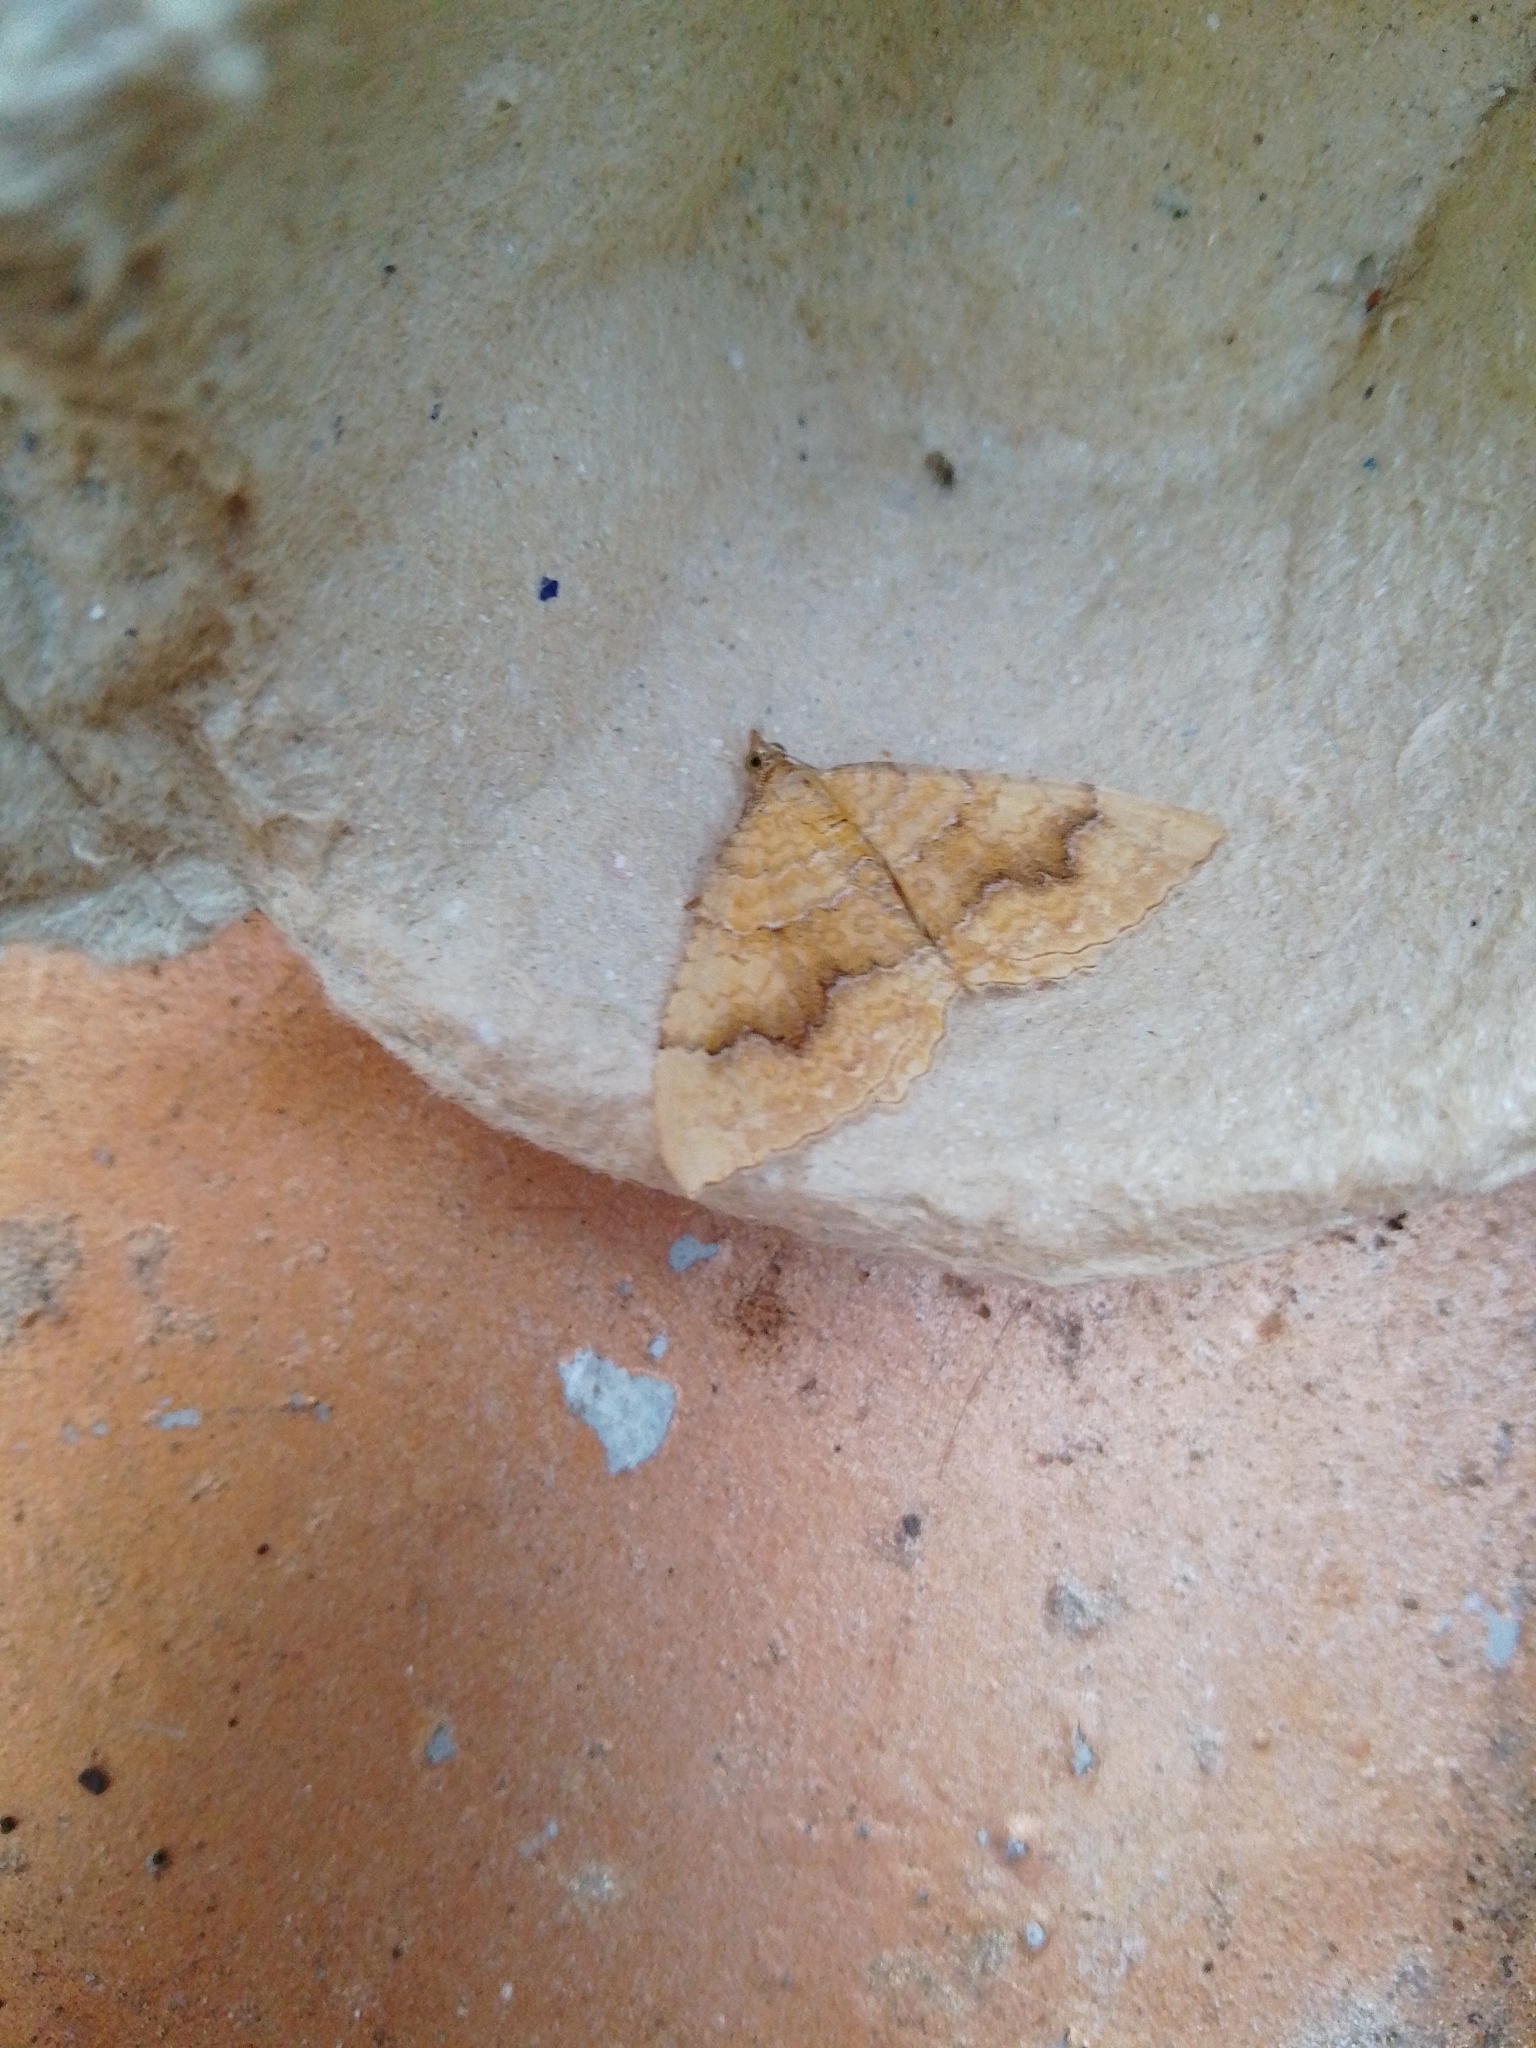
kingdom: Animalia
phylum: Arthropoda
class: Insecta
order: Lepidoptera
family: Geometridae
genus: Camptogramma
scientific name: Camptogramma bilineata
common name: Yellow shell
